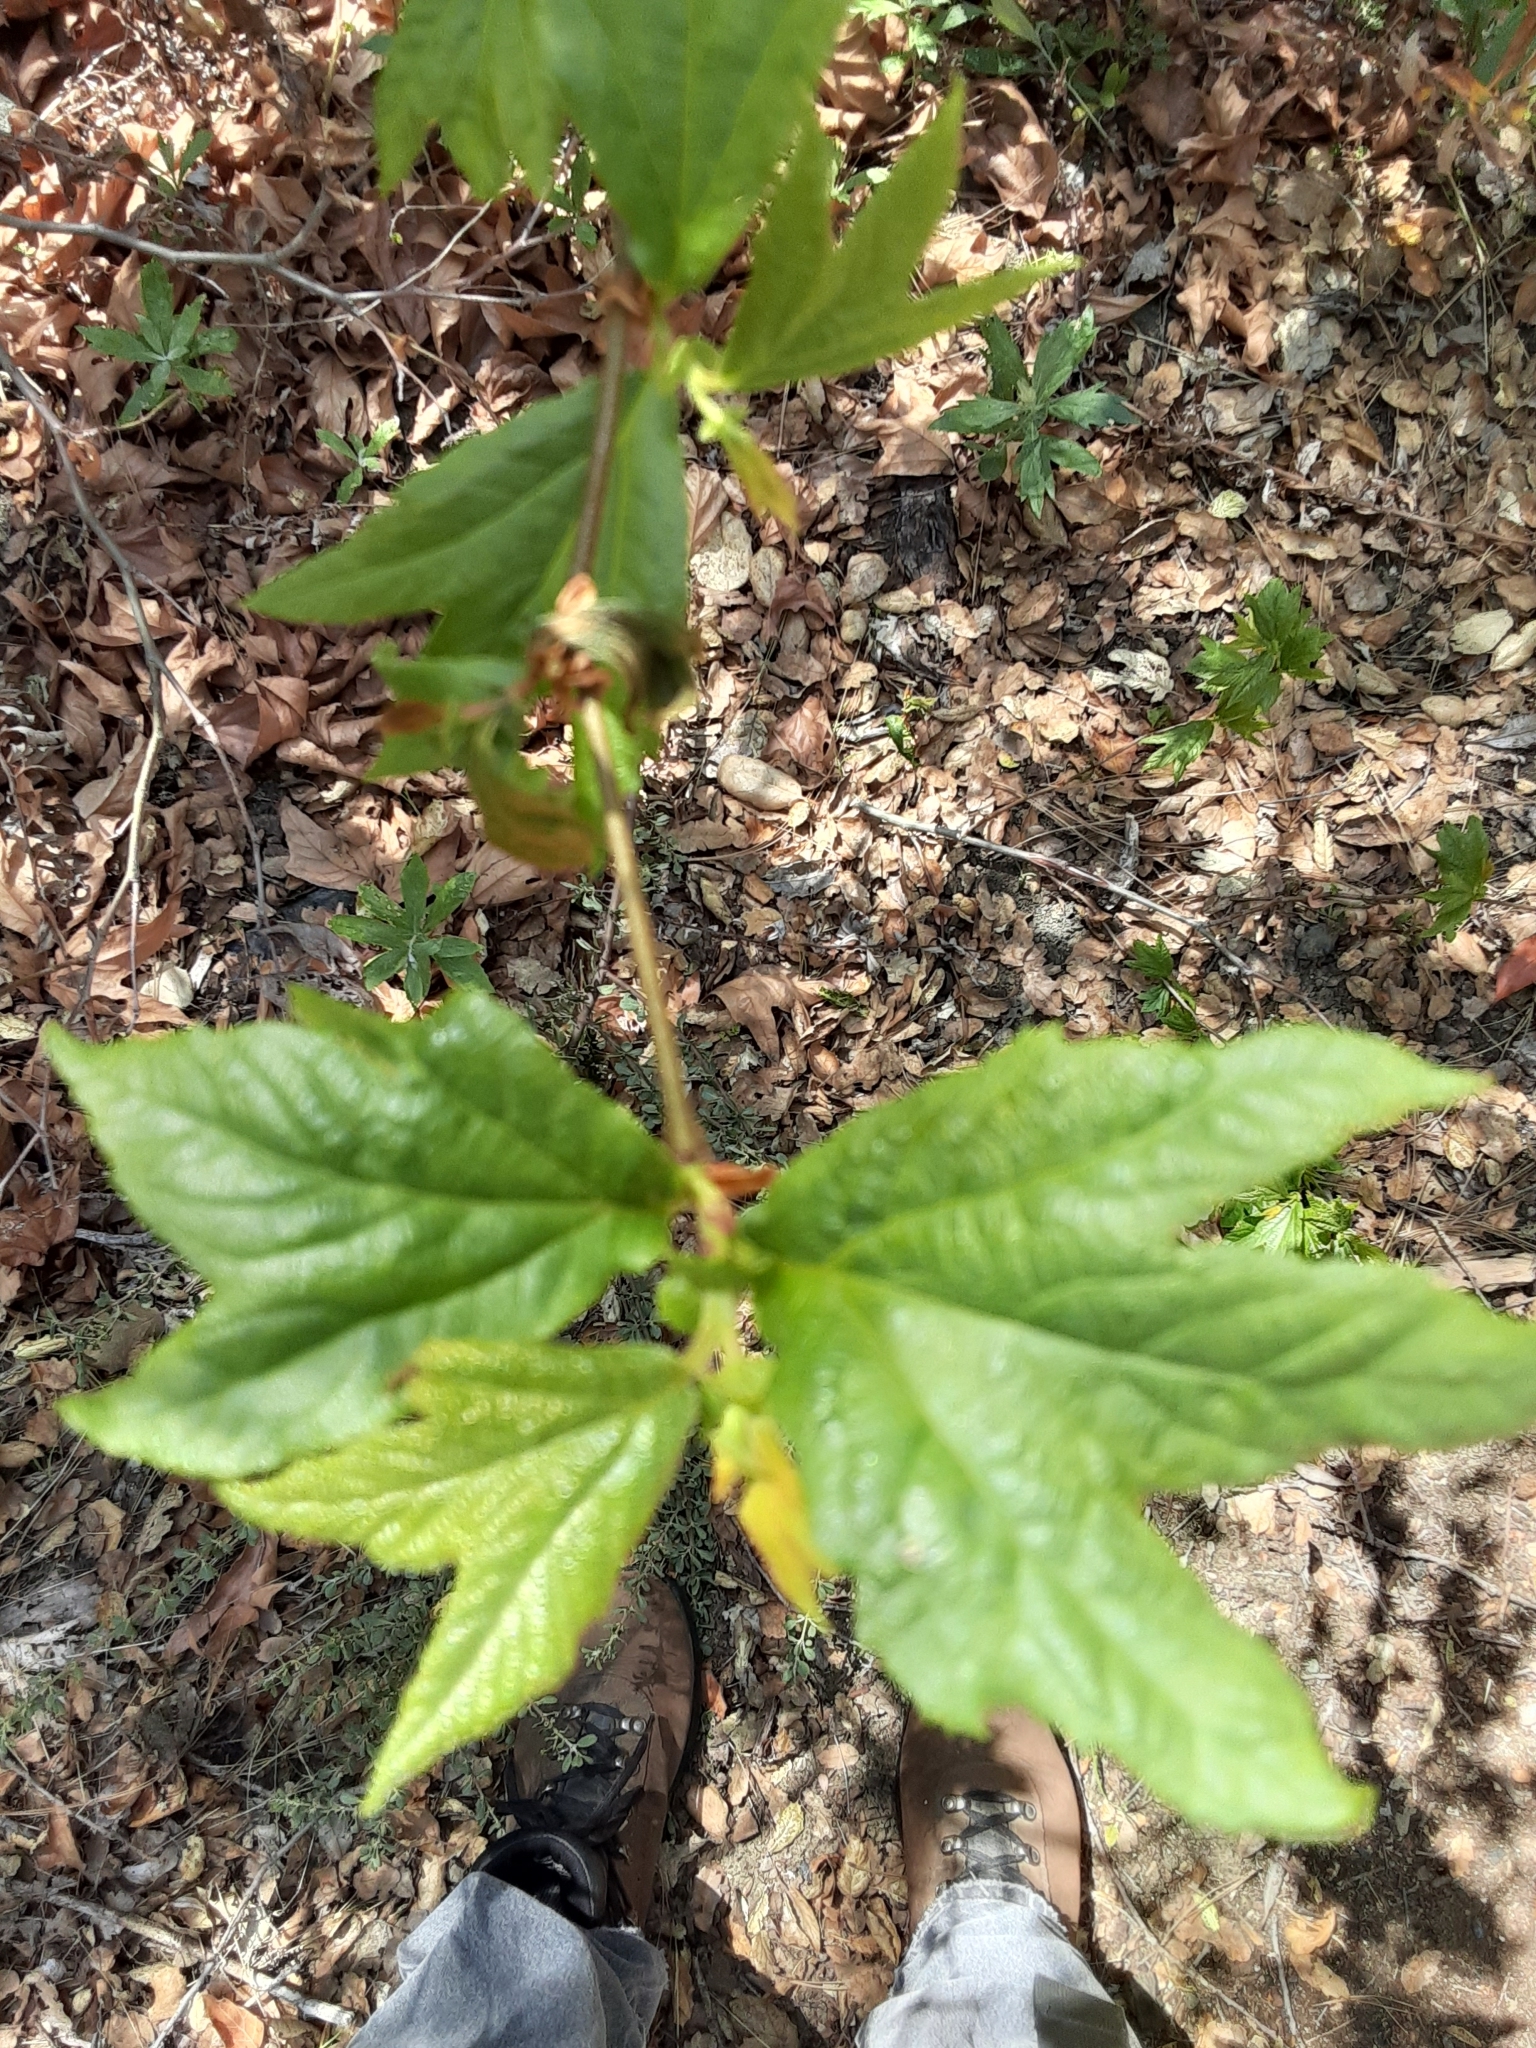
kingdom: Plantae
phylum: Tracheophyta
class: Magnoliopsida
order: Proteales
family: Platanaceae
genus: Platanus
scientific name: Platanus racemosa
